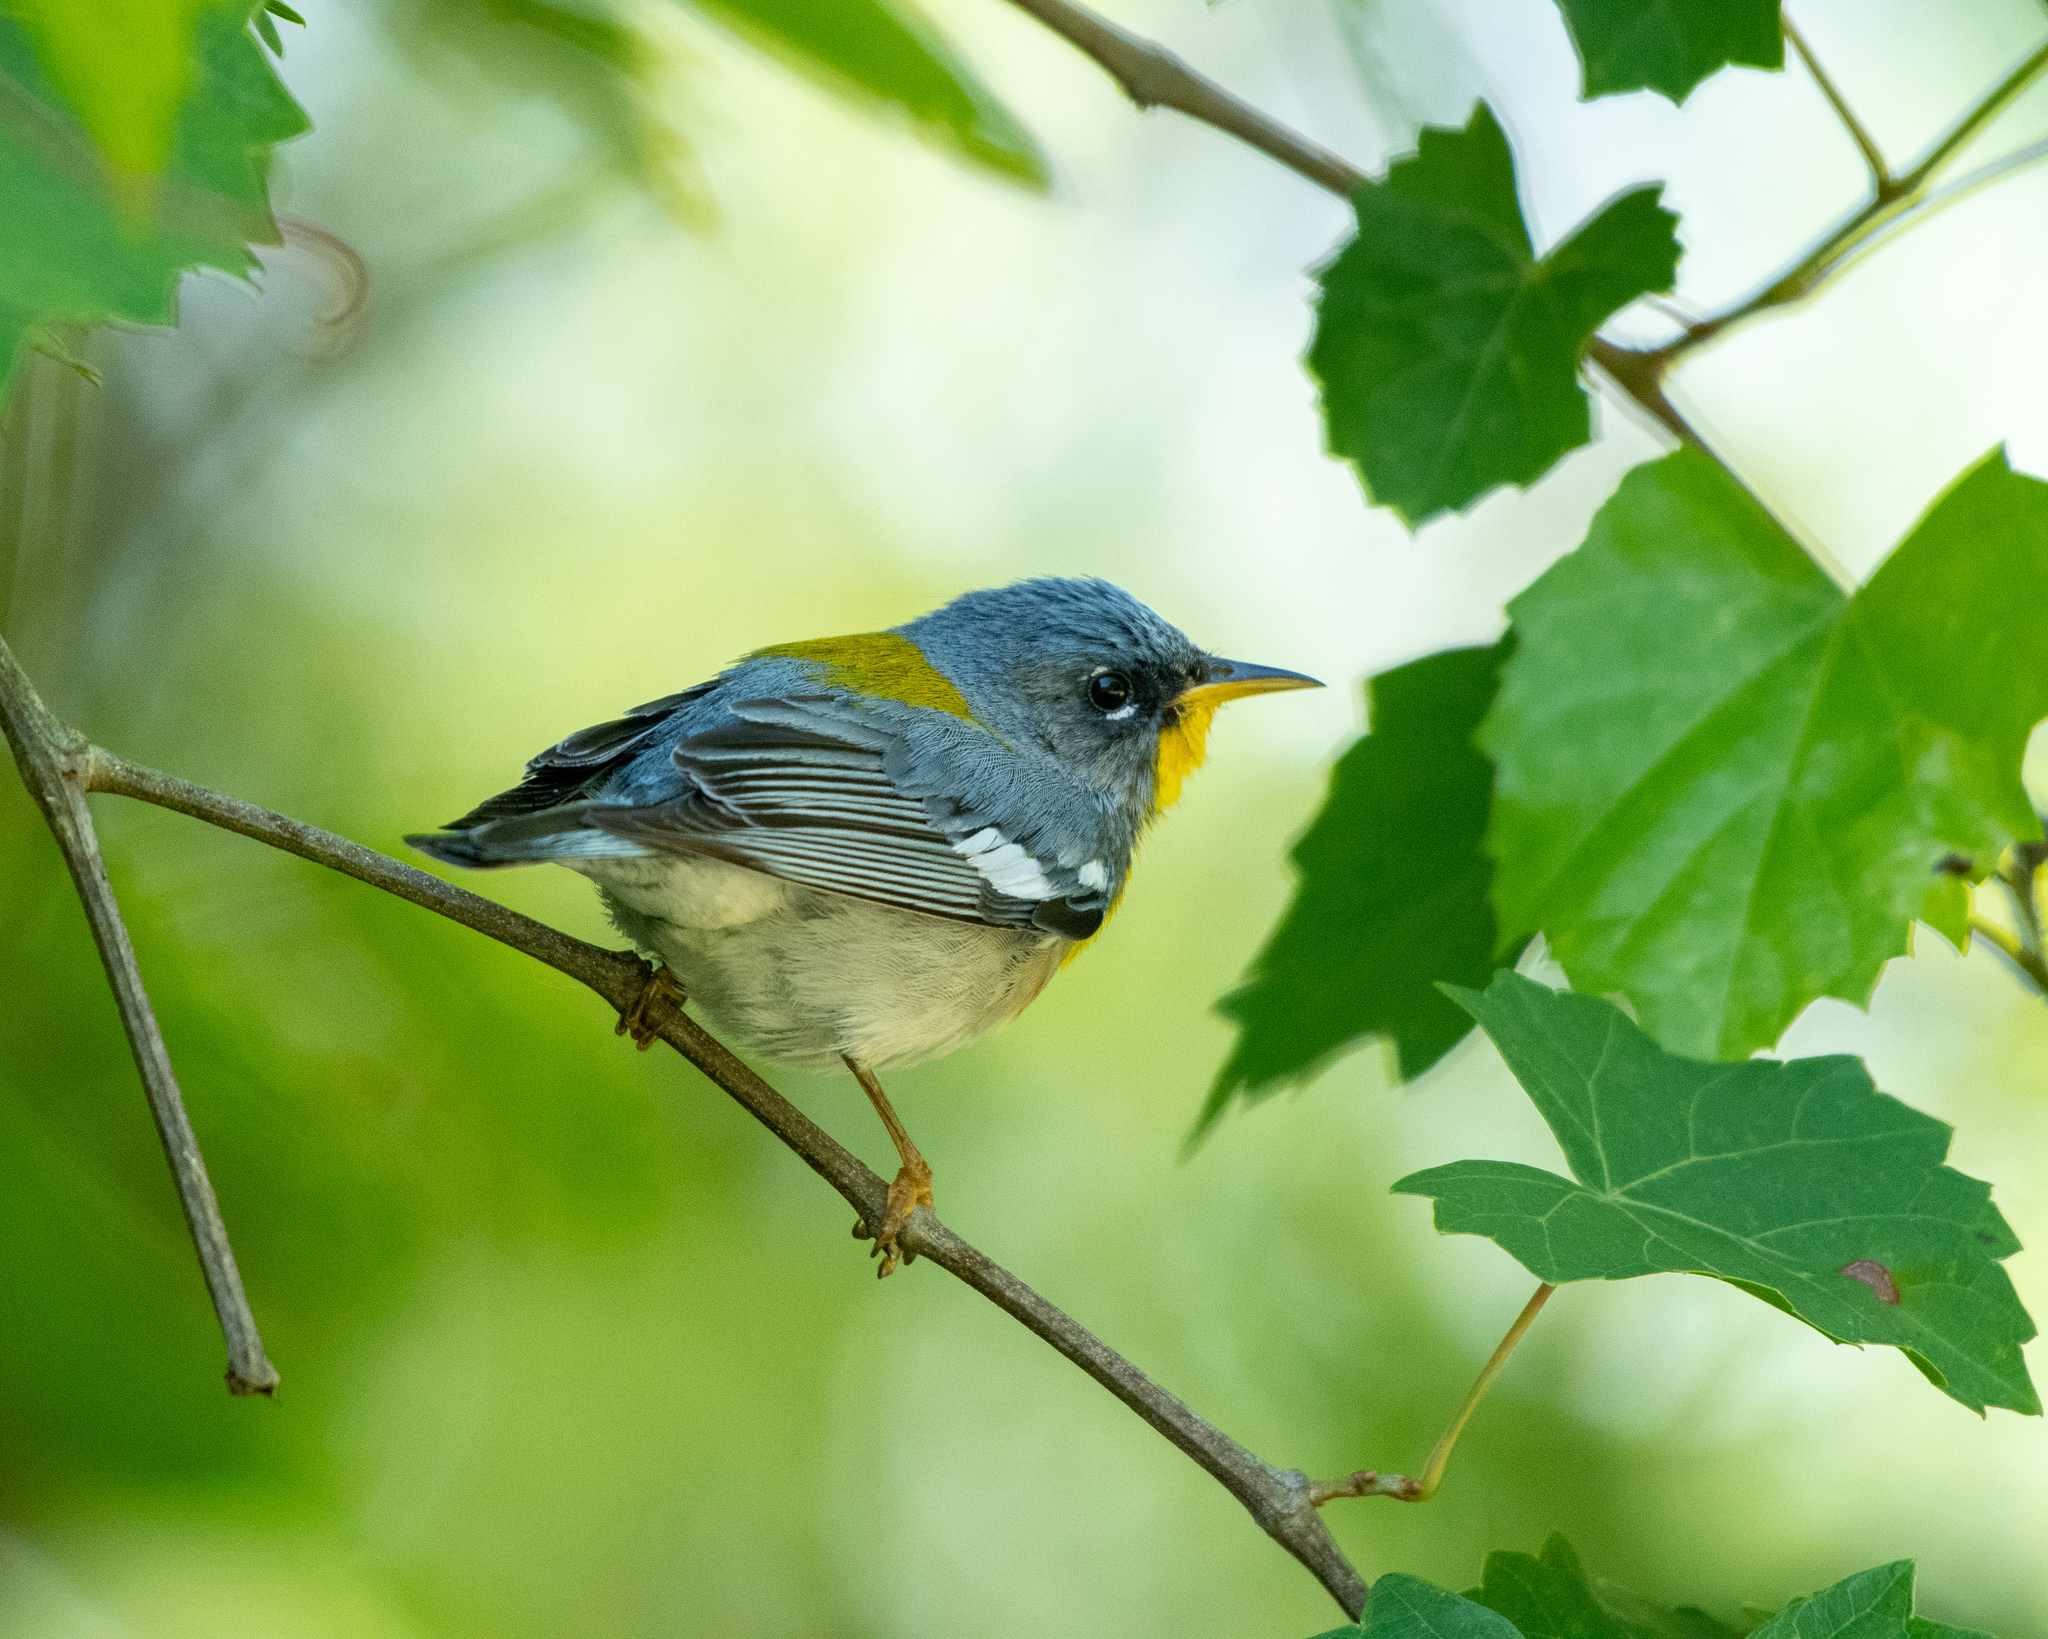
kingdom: Animalia
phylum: Chordata
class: Aves
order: Passeriformes
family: Parulidae
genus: Setophaga
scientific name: Setophaga americana
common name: Northern parula
